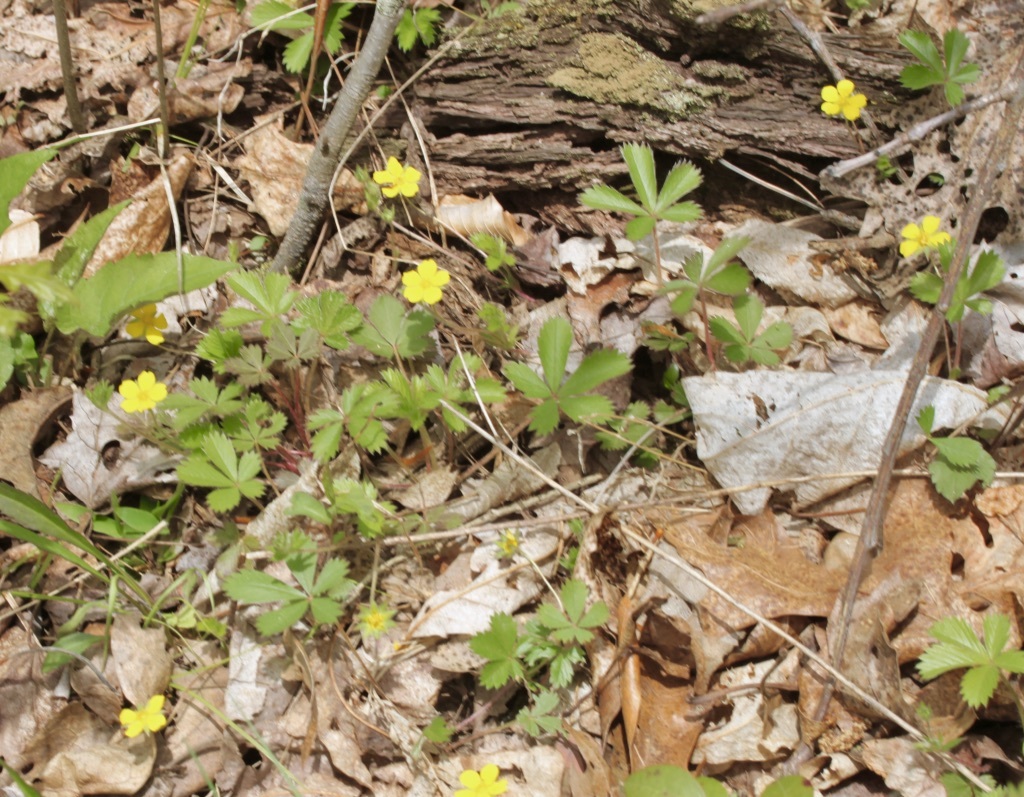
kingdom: Plantae
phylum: Tracheophyta
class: Magnoliopsida
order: Rosales
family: Rosaceae
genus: Potentilla
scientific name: Potentilla canadensis
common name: Canada cinquefoil
